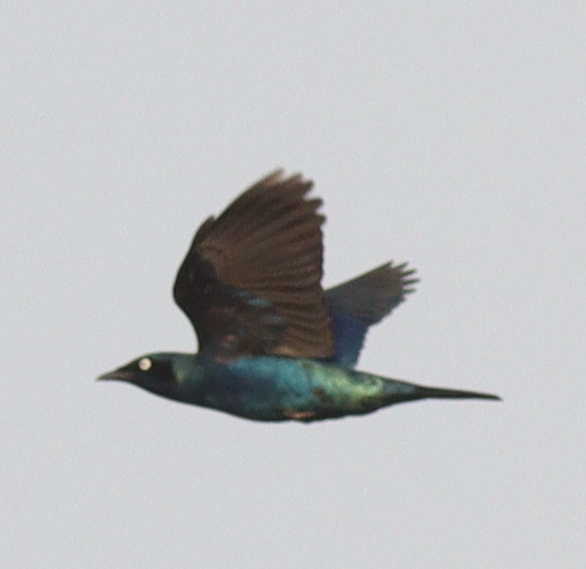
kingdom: Animalia
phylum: Chordata
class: Aves
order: Passeriformes
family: Sturnidae
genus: Lamprotornis
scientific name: Lamprotornis splendidus
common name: Splendid starling
